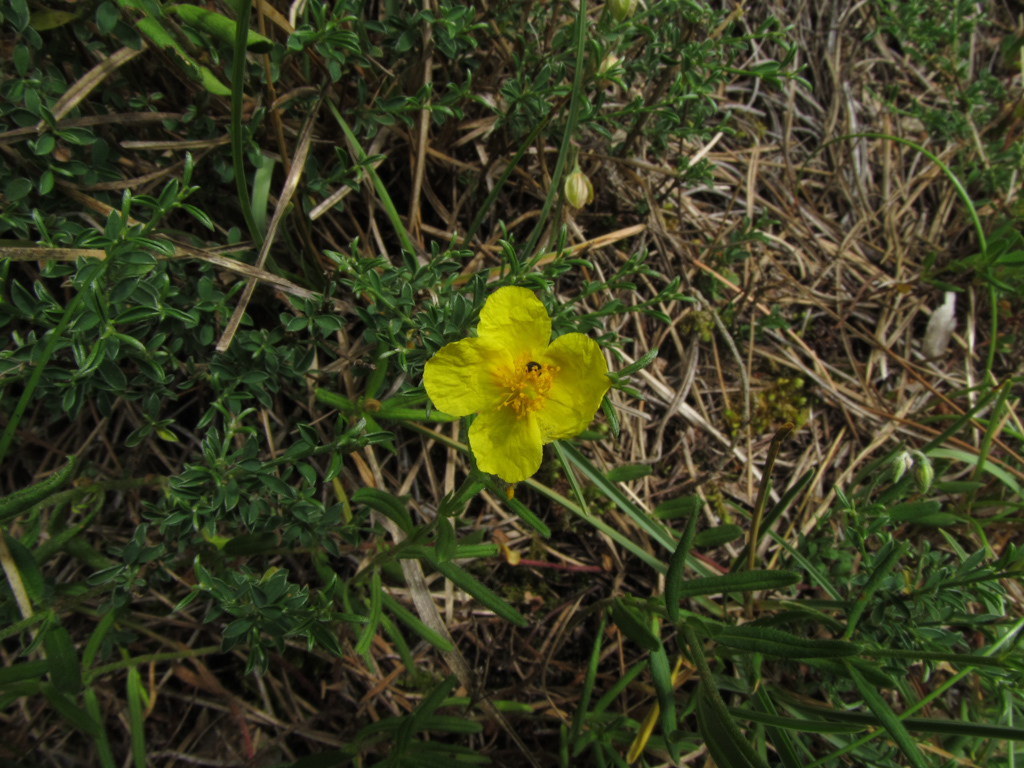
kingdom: Plantae
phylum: Tracheophyta
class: Magnoliopsida
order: Malvales
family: Cistaceae
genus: Helianthemum
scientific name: Helianthemum nummularium
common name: Common rock-rose
